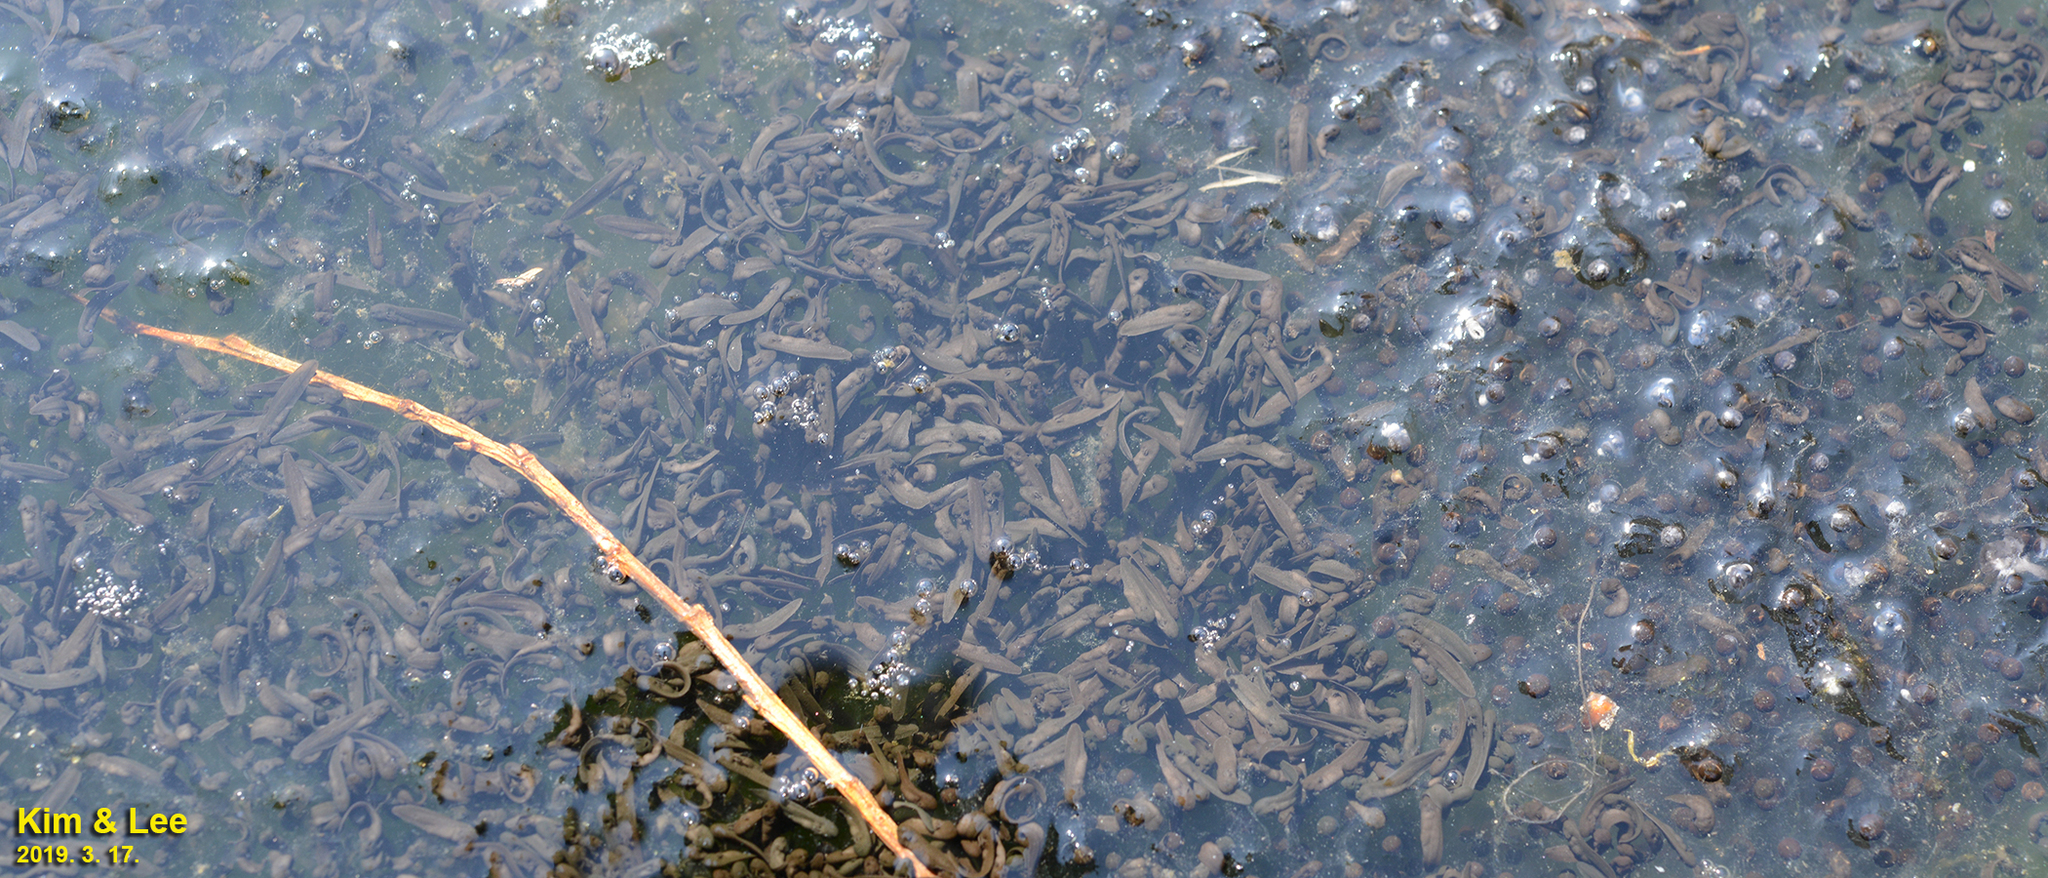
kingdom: Animalia
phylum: Chordata
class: Amphibia
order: Anura
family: Ranidae
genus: Rana
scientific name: Rana uenoi
